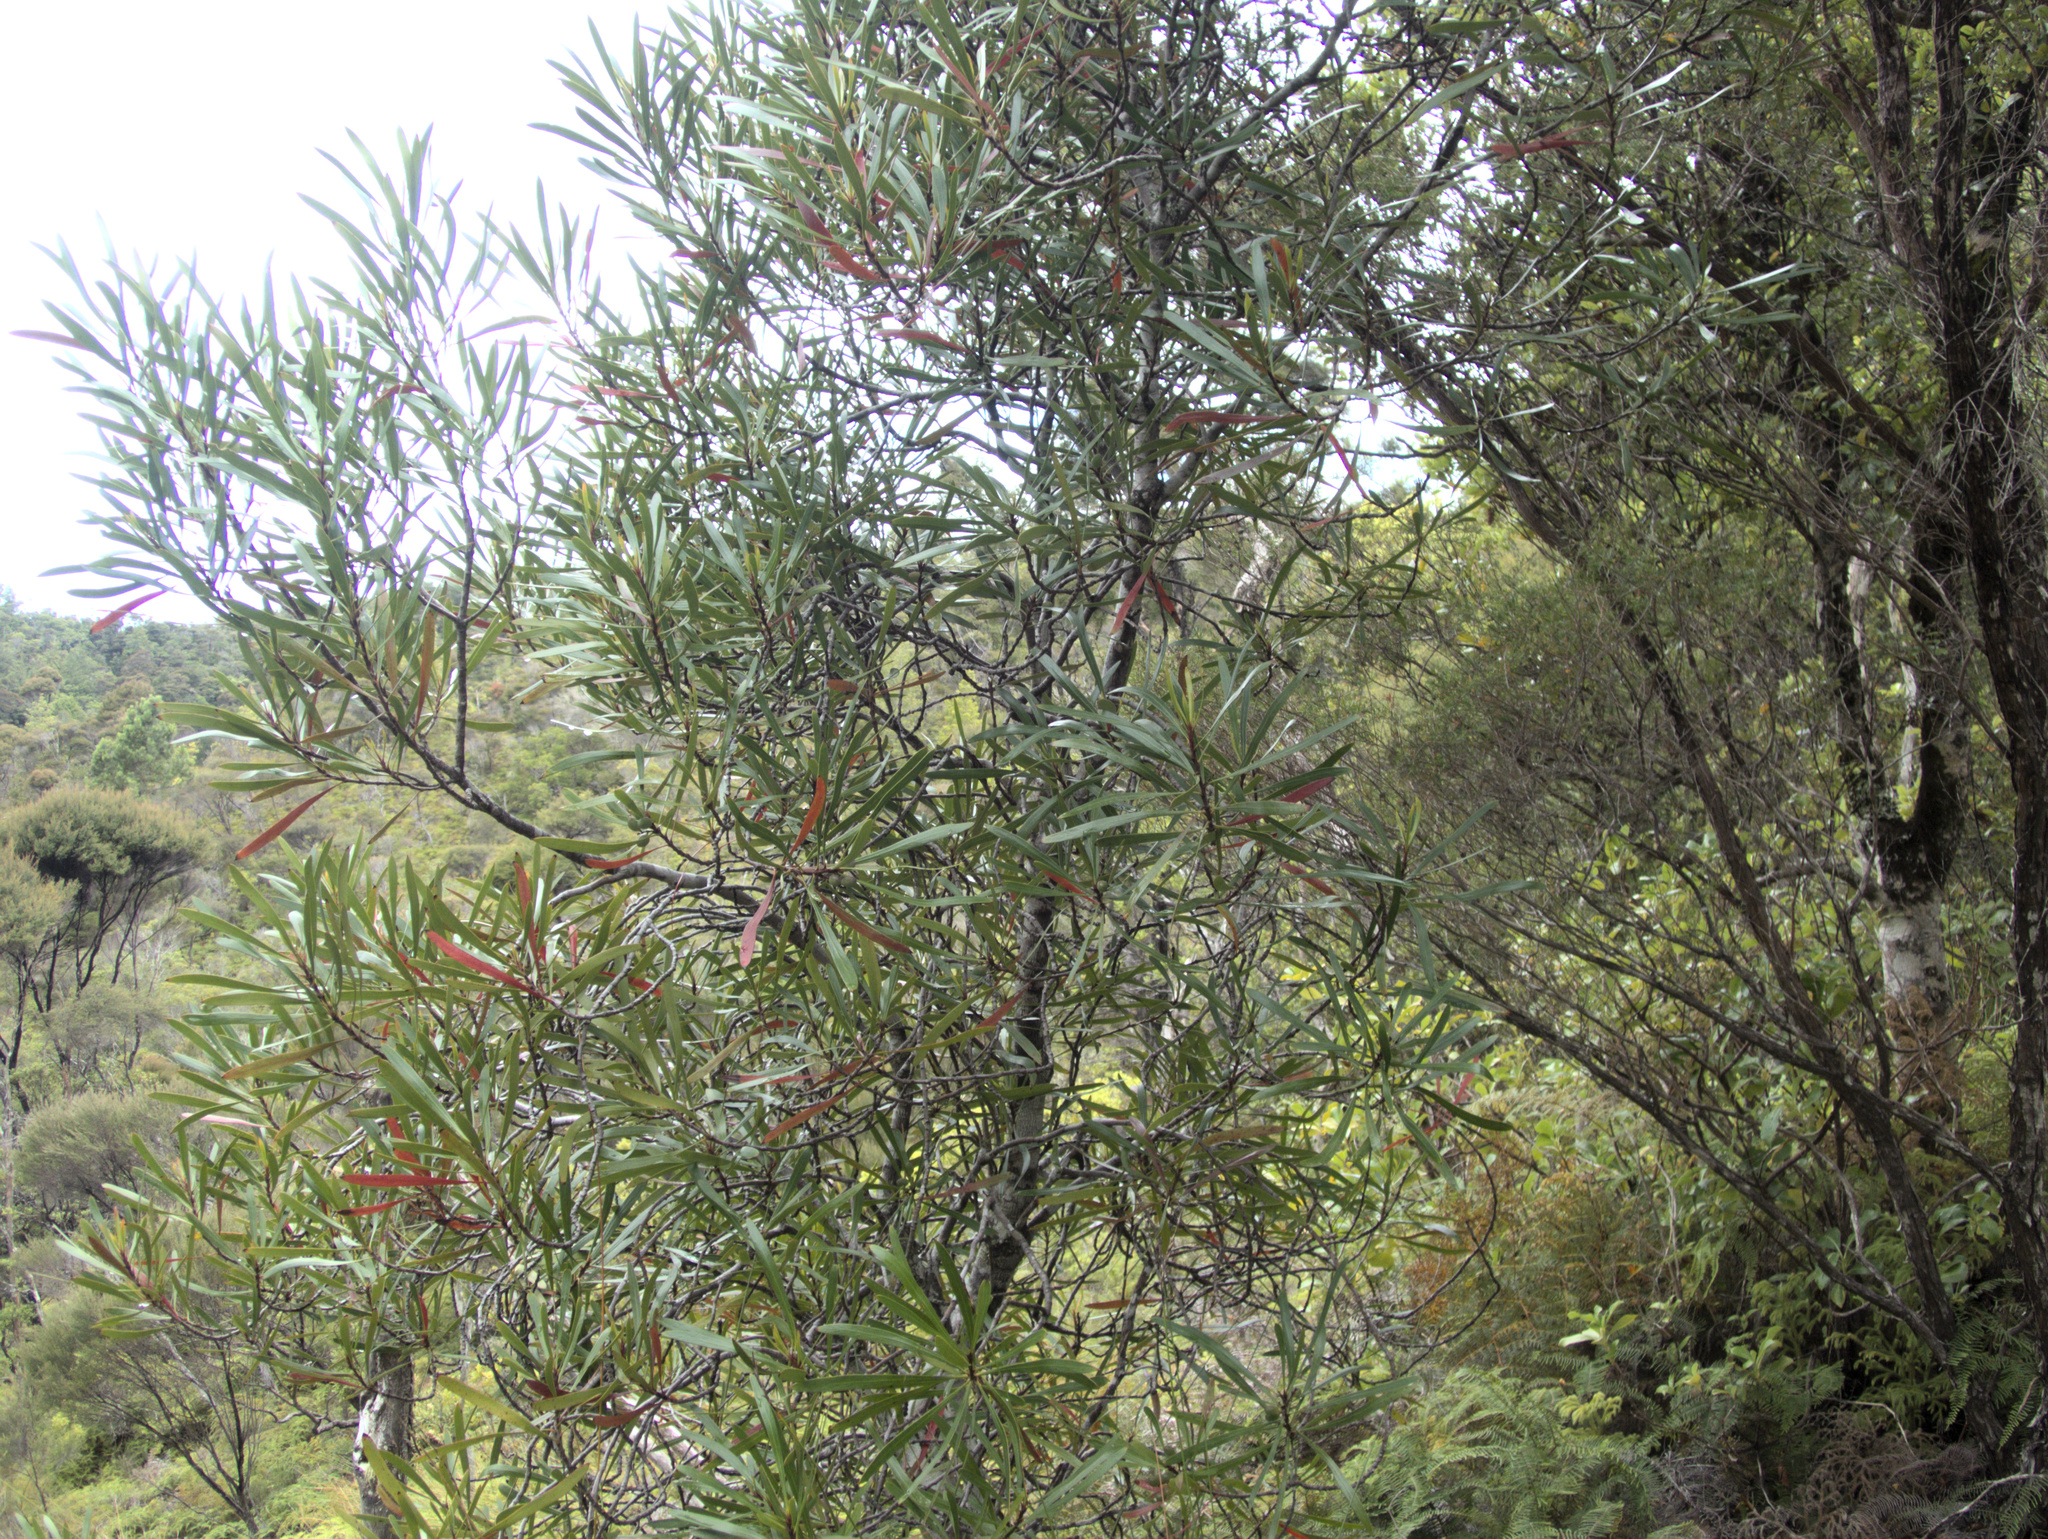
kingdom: Plantae
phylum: Tracheophyta
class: Magnoliopsida
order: Proteales
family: Proteaceae
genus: Toronia
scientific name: Toronia toru
